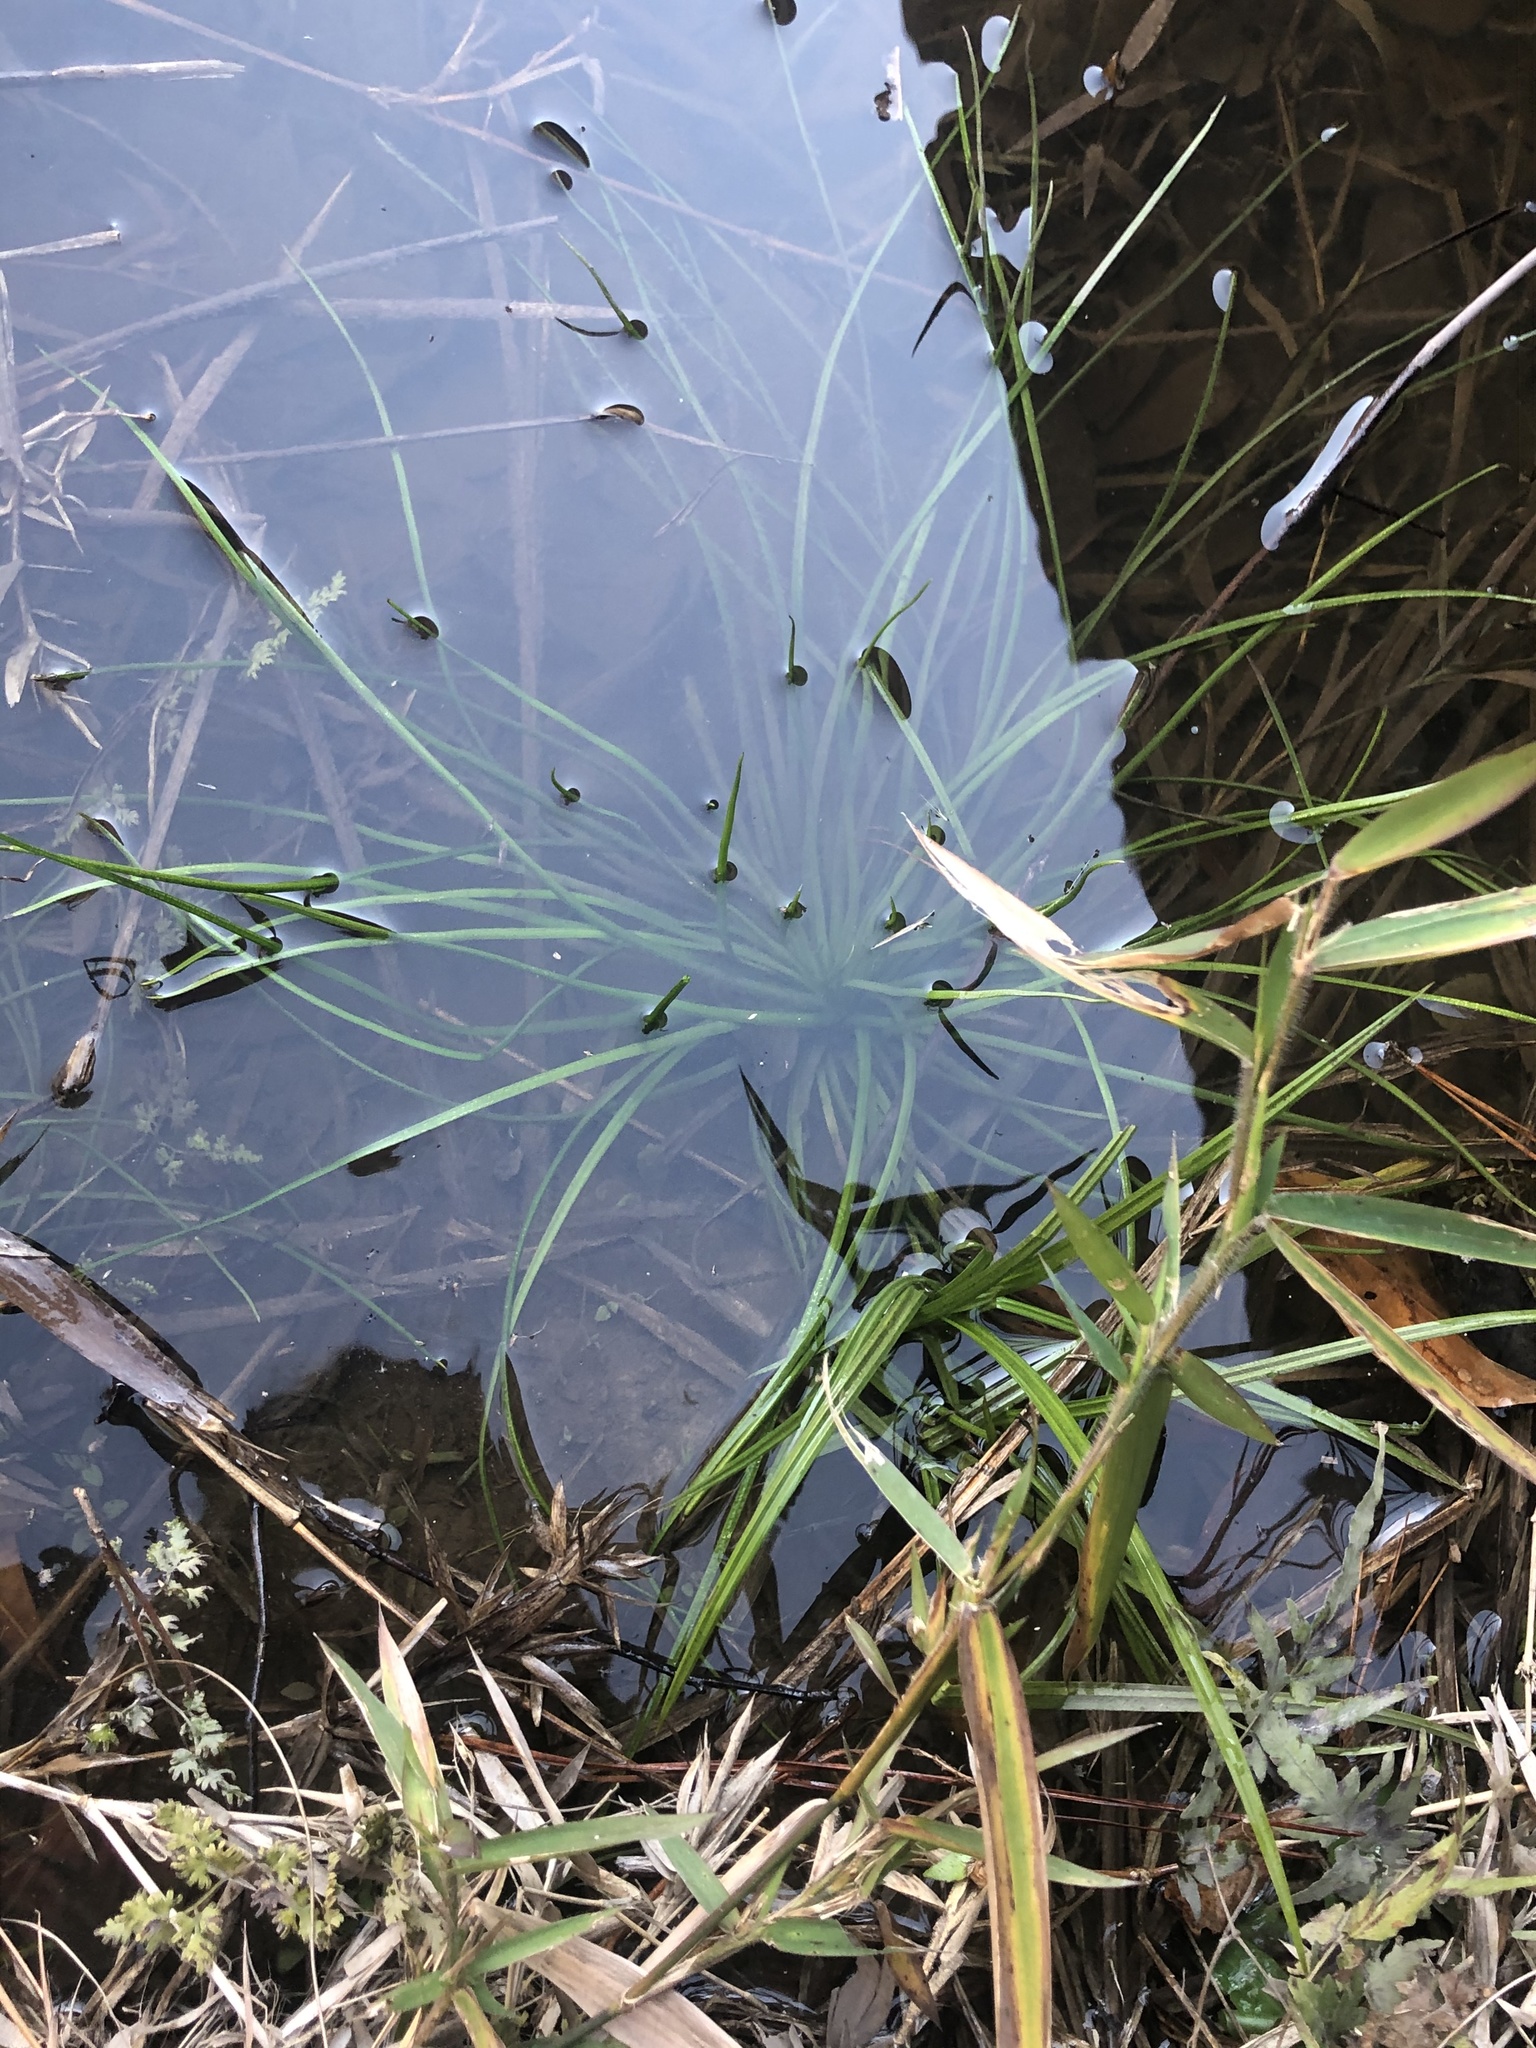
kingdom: Plantae
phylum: Tracheophyta
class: Lycopodiopsida
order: Isoetales
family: Isoetaceae
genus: Isoetes
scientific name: Isoetes mississippiensis
